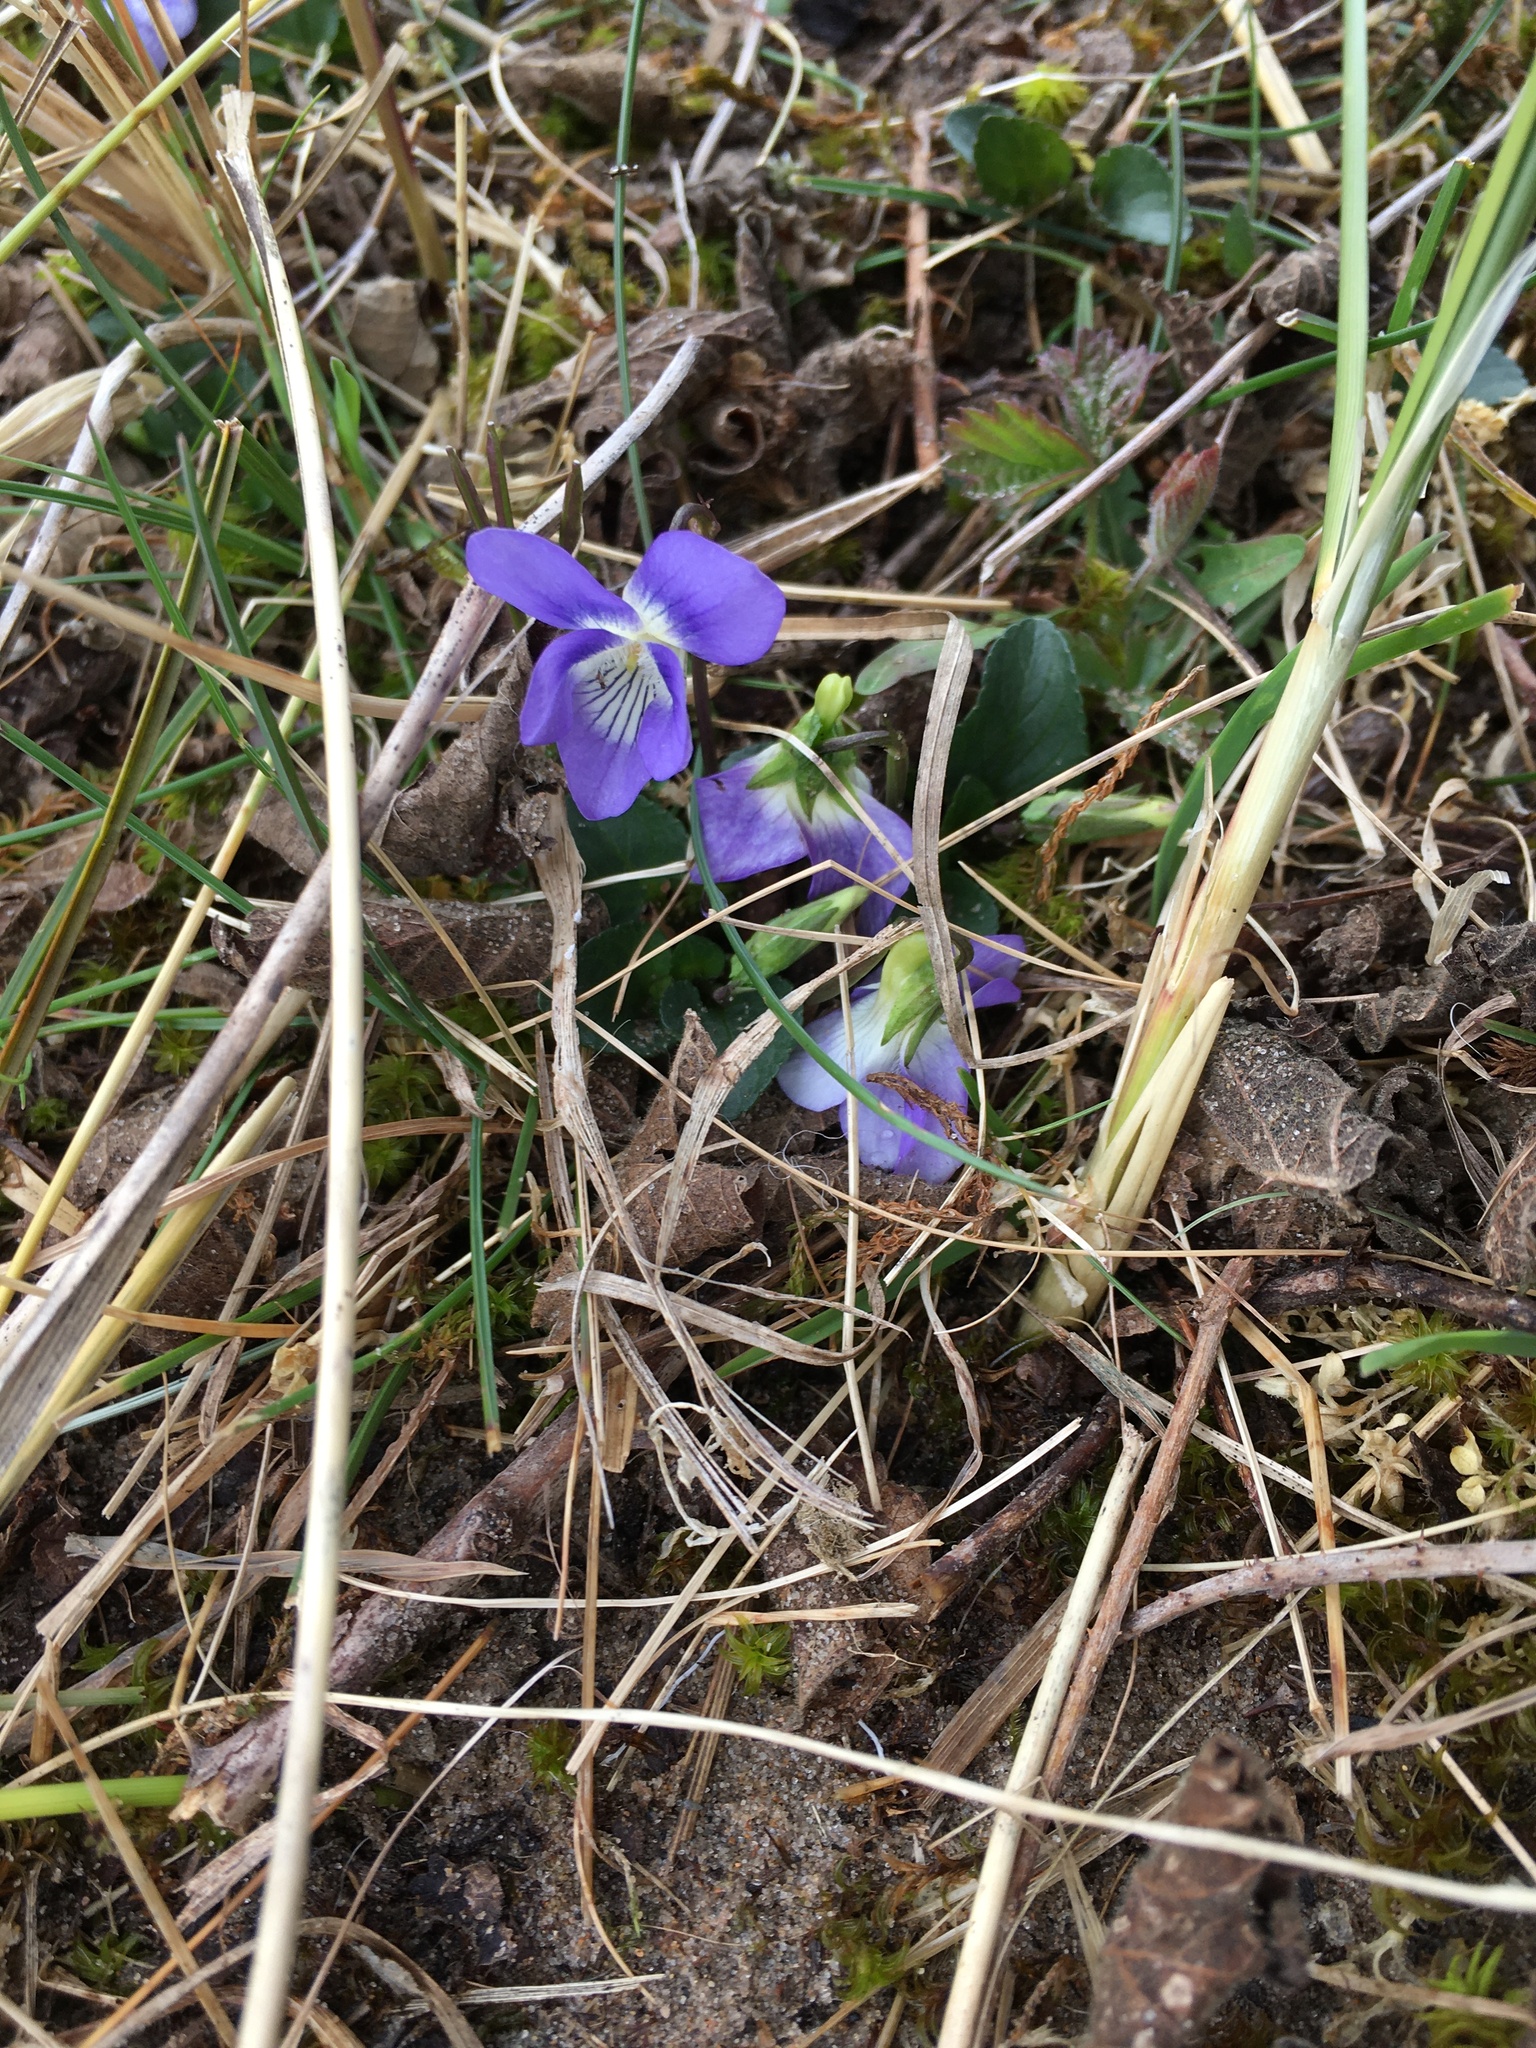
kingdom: Plantae
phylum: Tracheophyta
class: Magnoliopsida
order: Malpighiales
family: Violaceae
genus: Viola
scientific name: Viola canina
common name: Heath dog-violet
